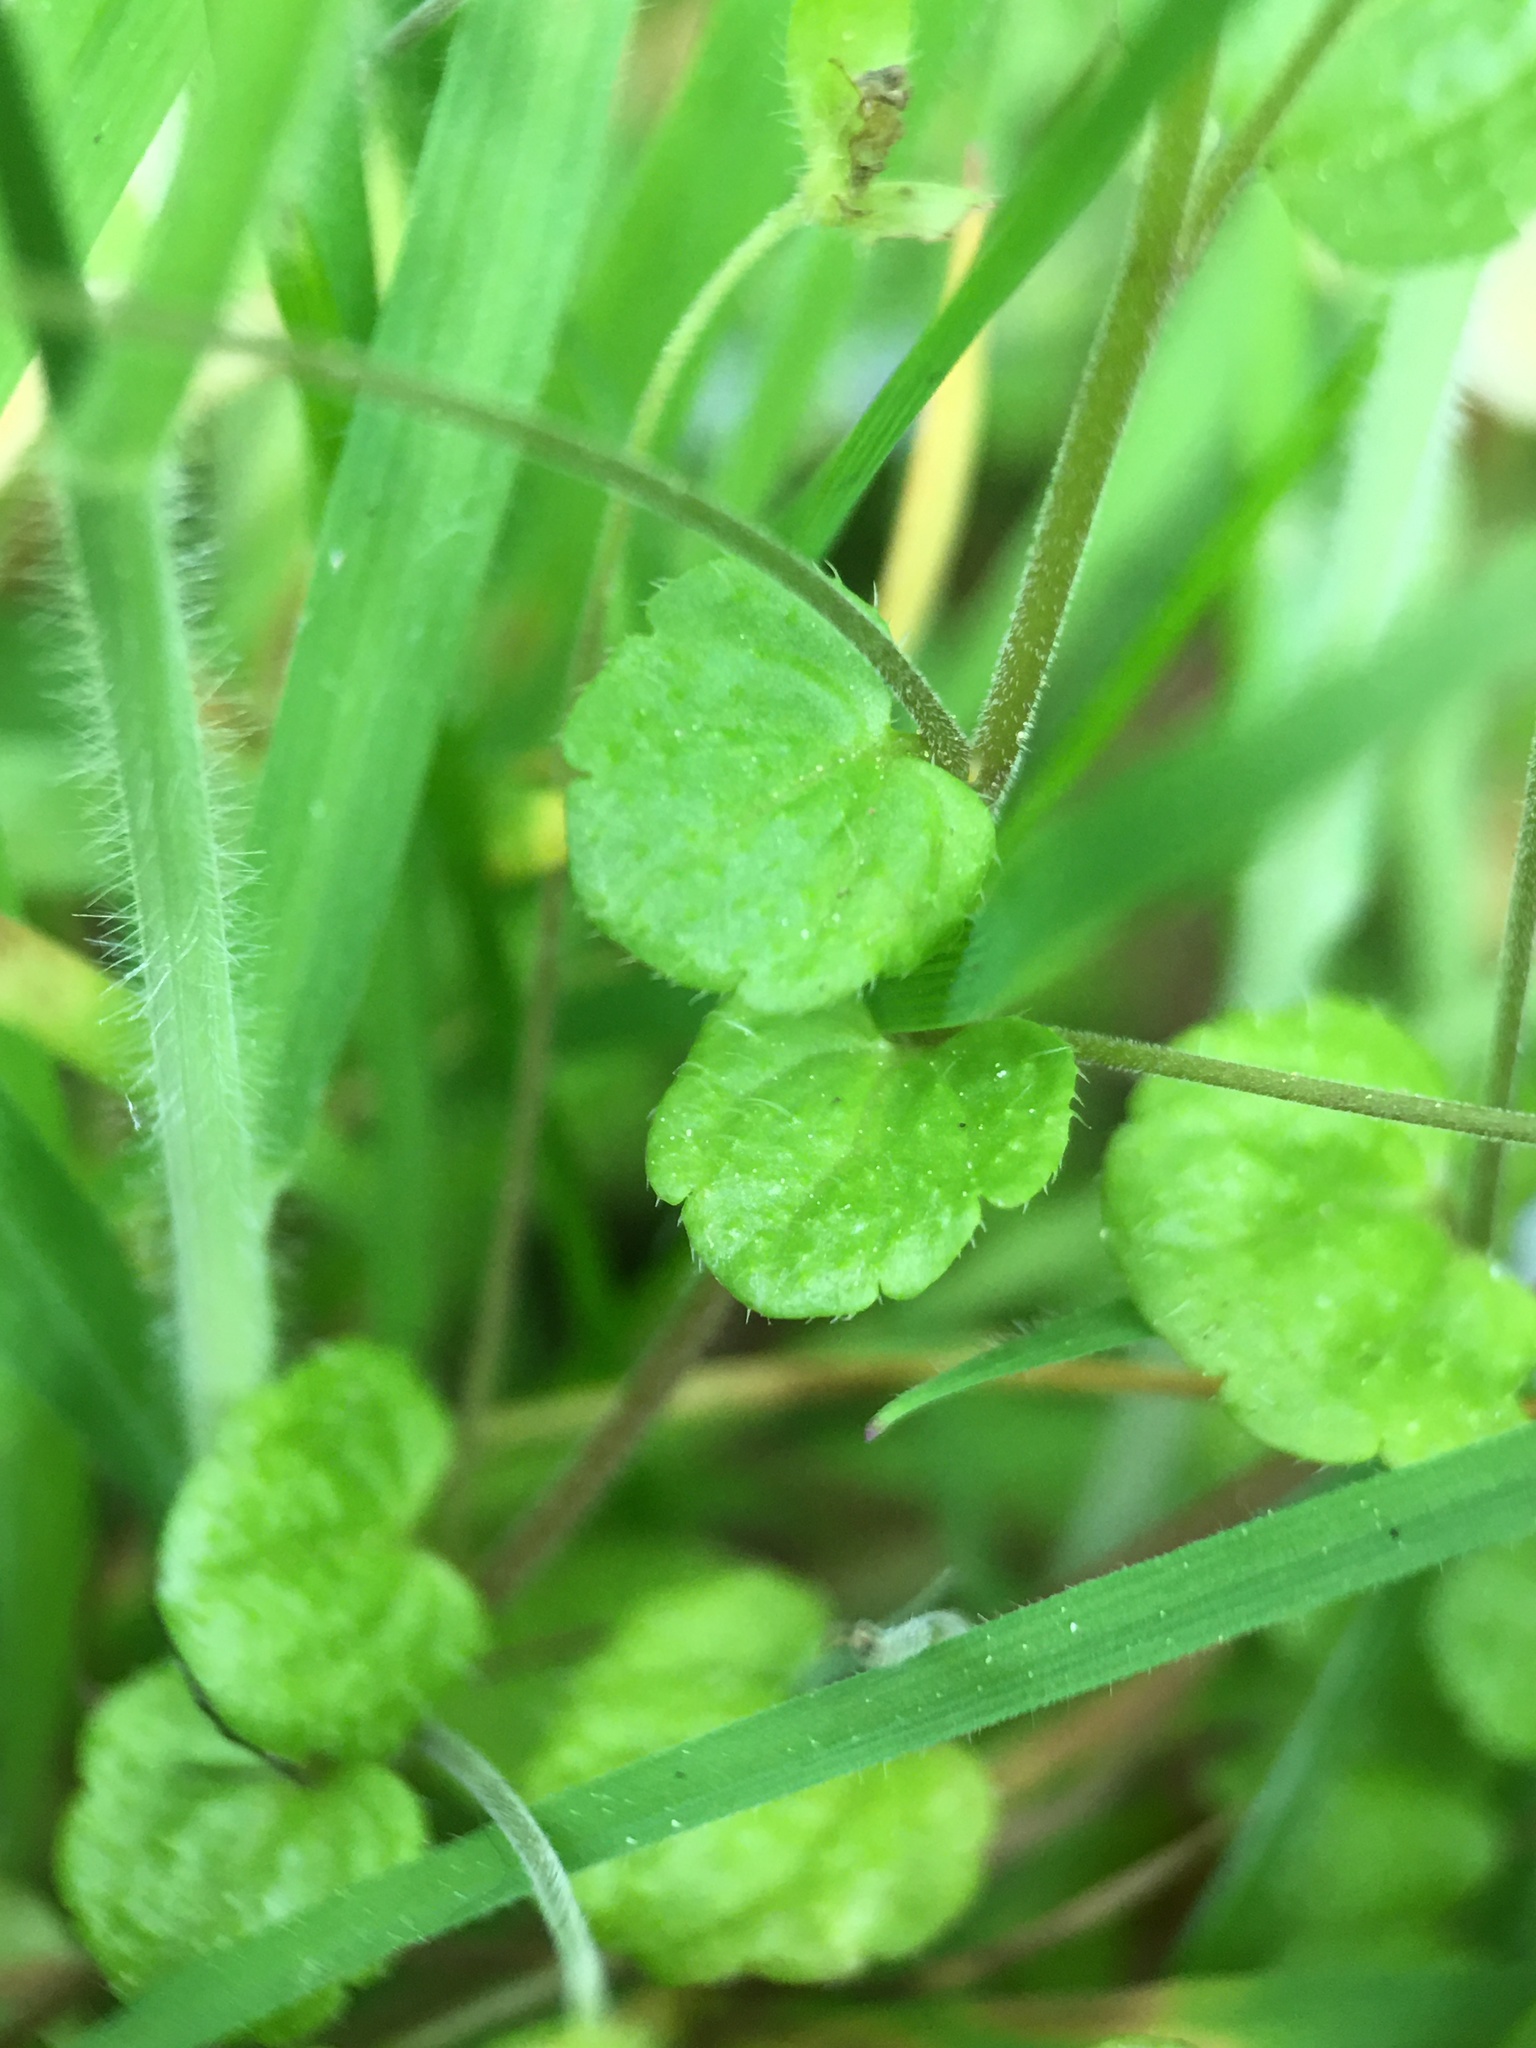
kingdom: Plantae
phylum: Tracheophyta
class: Magnoliopsida
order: Lamiales
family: Plantaginaceae
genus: Veronica
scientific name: Veronica filiformis
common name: Slender speedwell
